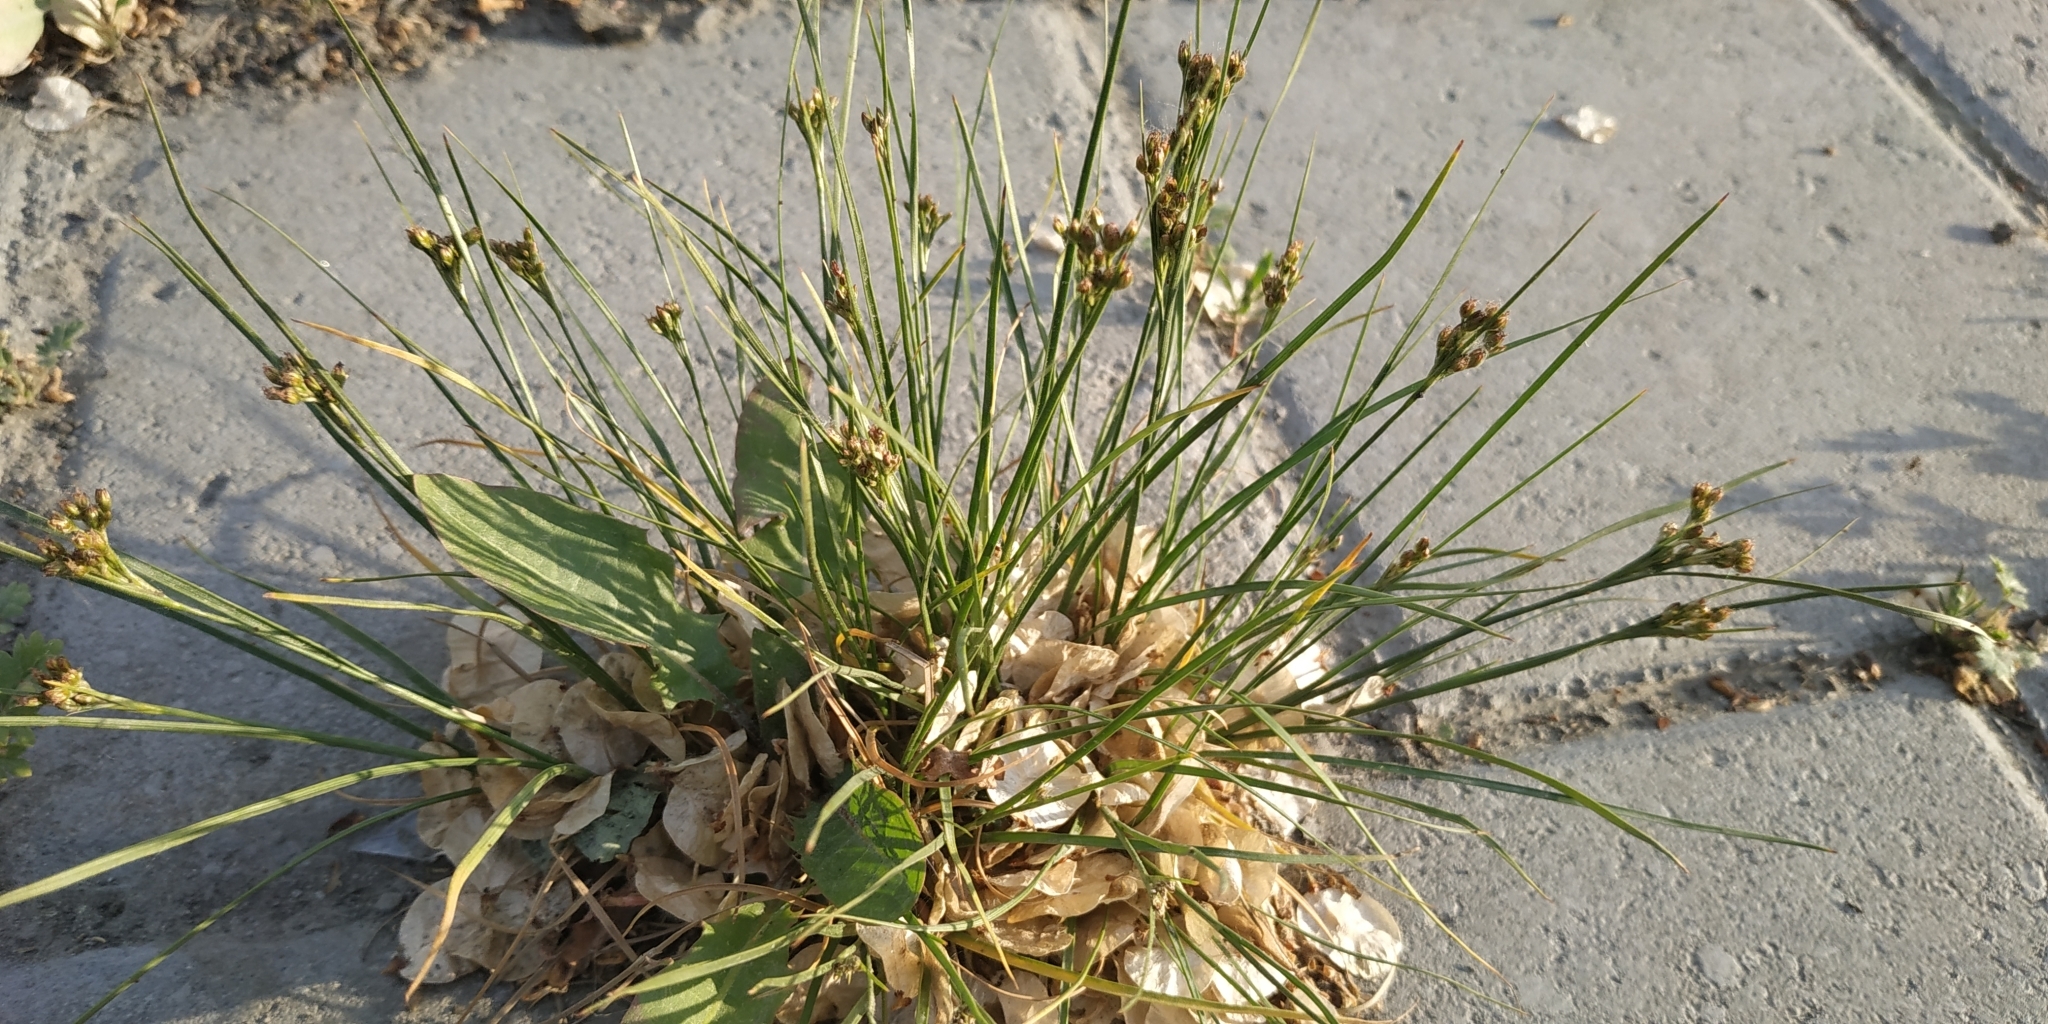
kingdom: Plantae
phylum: Tracheophyta
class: Liliopsida
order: Poales
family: Juncaceae
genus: Juncus
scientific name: Juncus compressus
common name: Round-fruited rush
